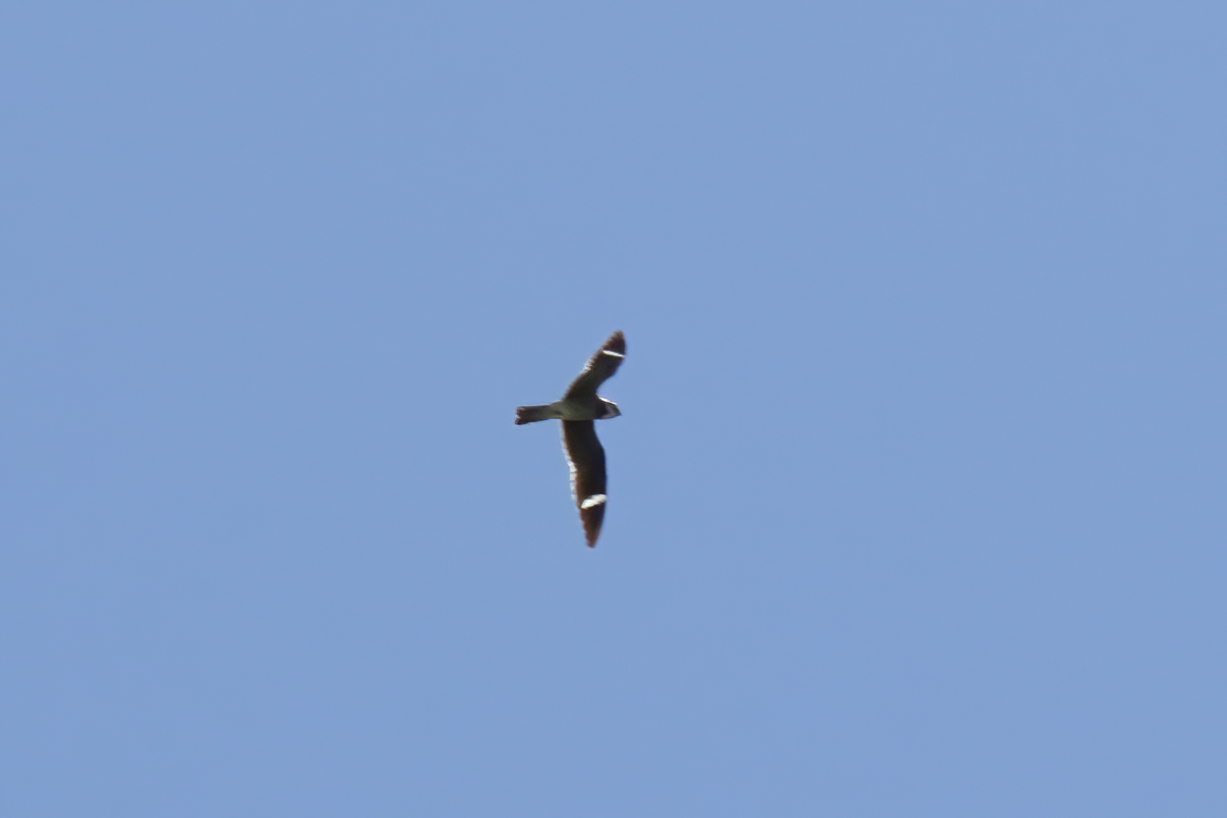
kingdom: Animalia
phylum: Chordata
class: Aves
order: Caprimulgiformes
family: Caprimulgidae
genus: Chordeiles
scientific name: Chordeiles minor
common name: Common nighthawk
